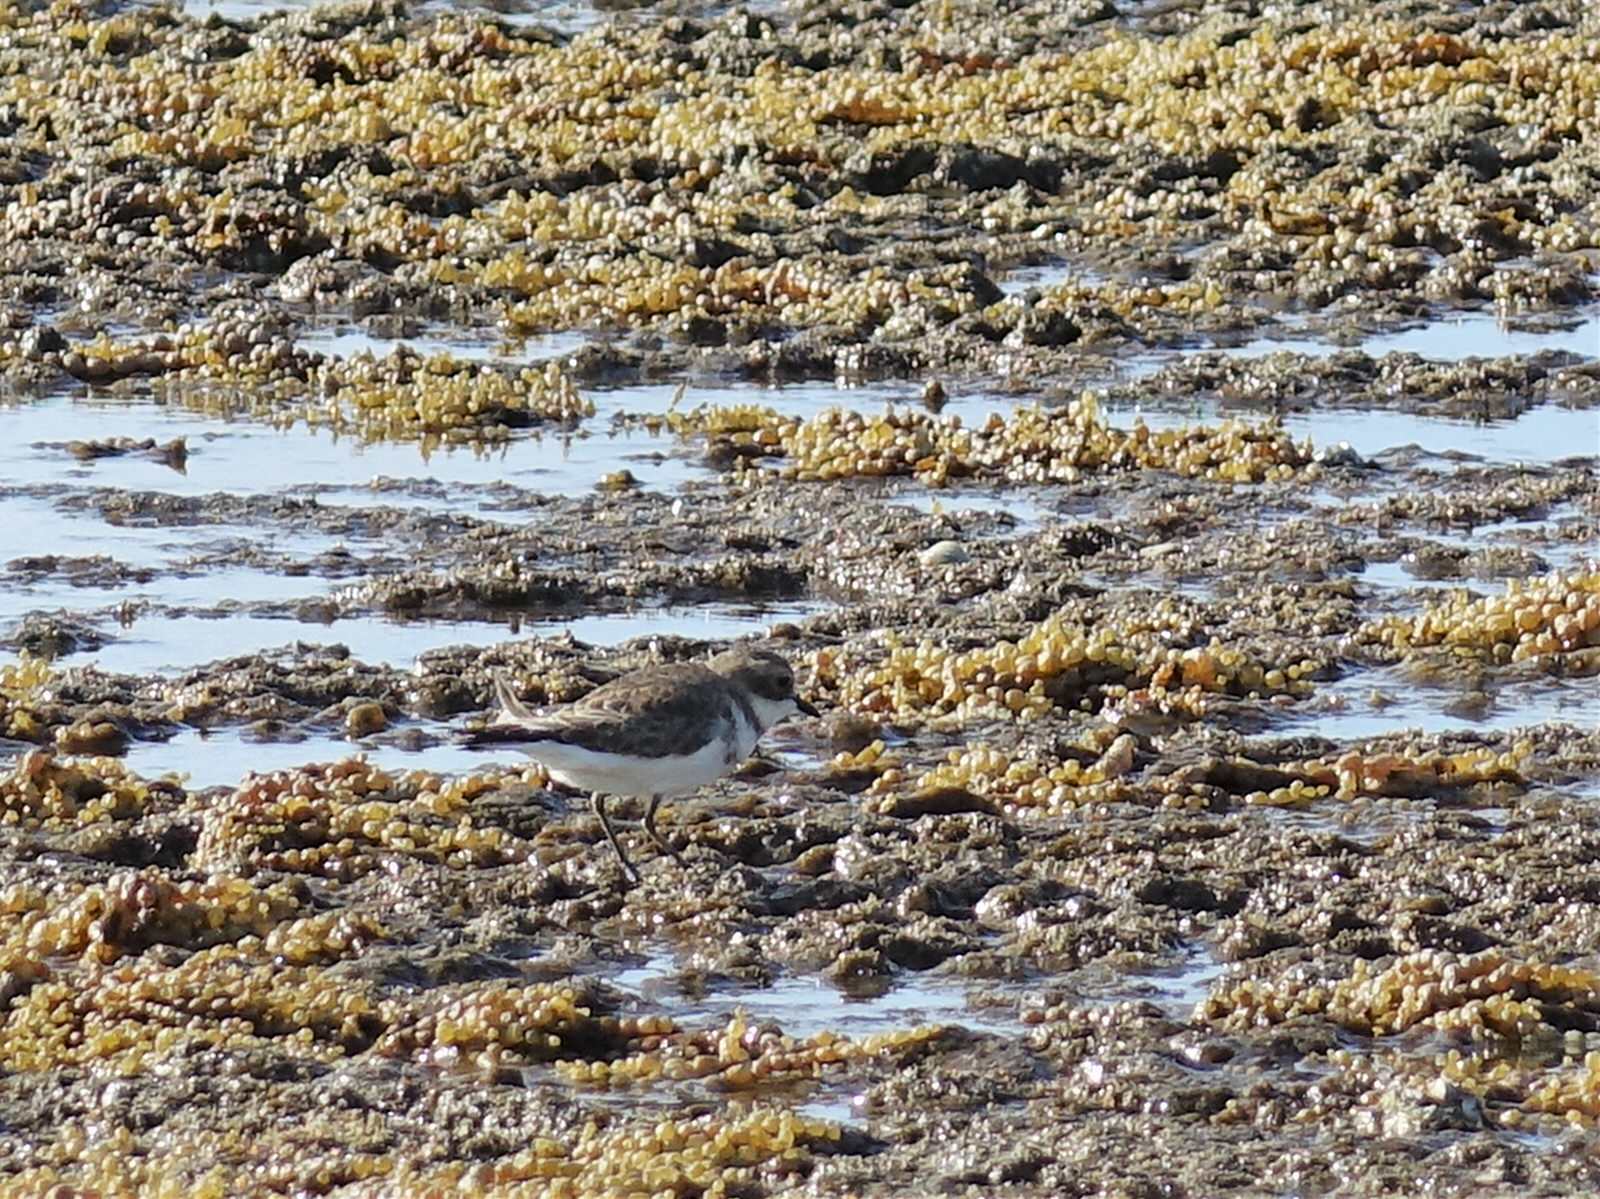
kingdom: Animalia
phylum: Chordata
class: Aves
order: Charadriiformes
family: Charadriidae
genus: Anarhynchus
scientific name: Anarhynchus
